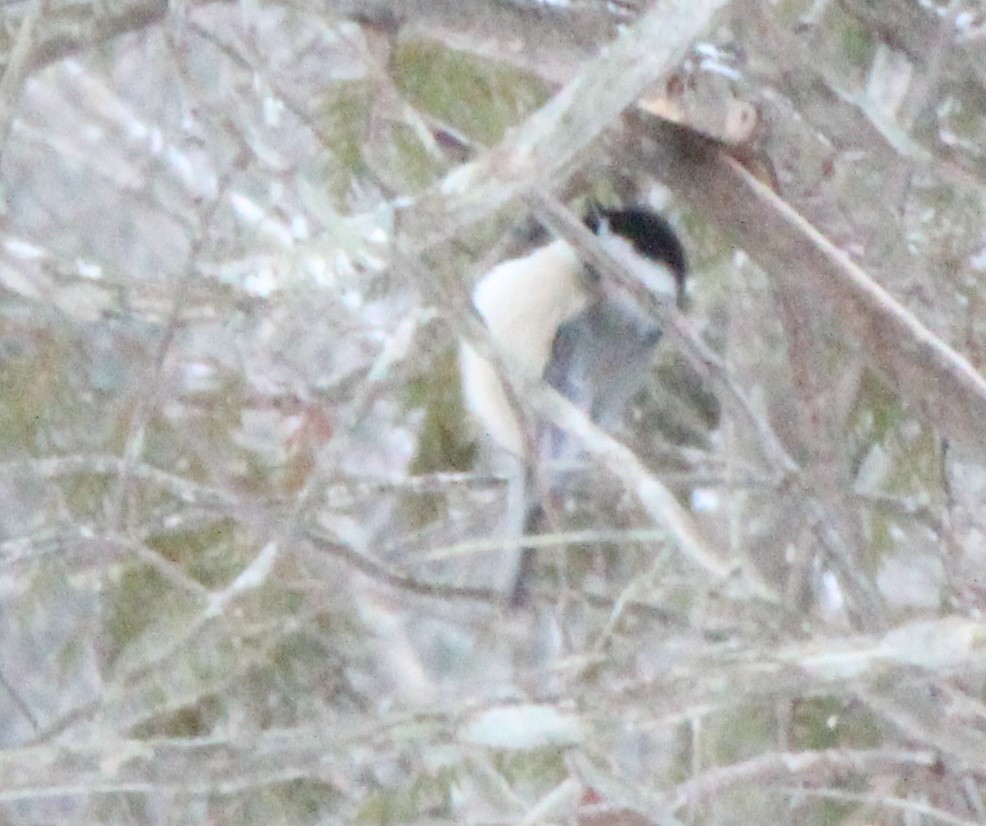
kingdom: Animalia
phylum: Chordata
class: Aves
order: Passeriformes
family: Paridae
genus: Poecile
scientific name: Poecile atricapillus
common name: Black-capped chickadee
